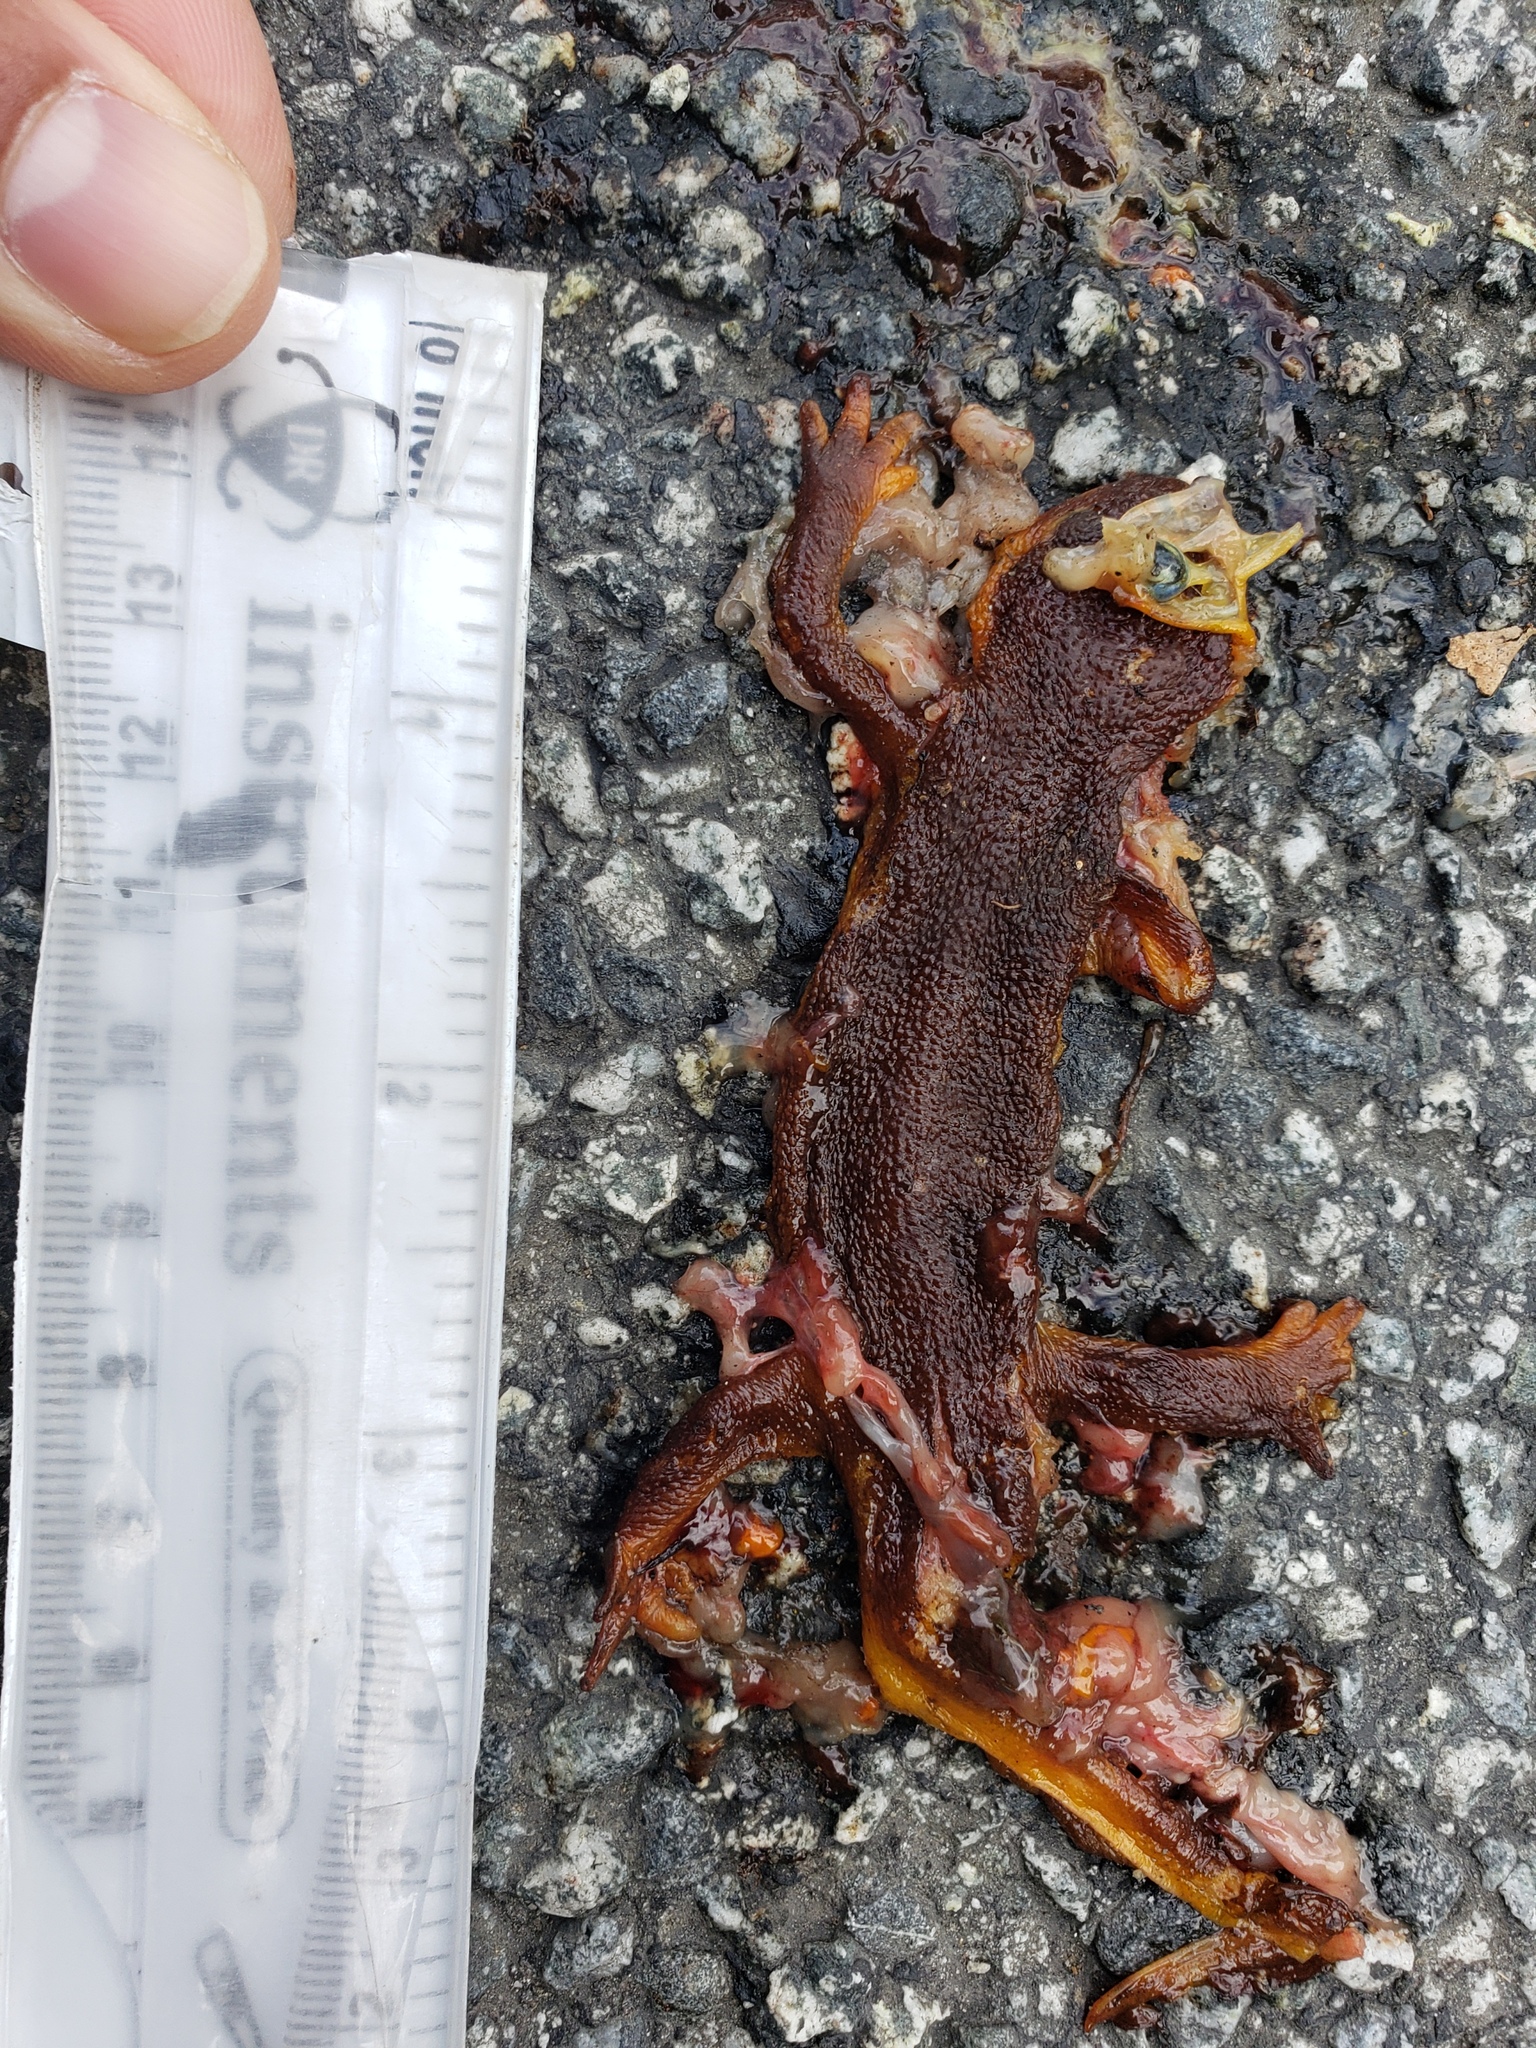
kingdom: Animalia
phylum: Chordata
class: Amphibia
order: Caudata
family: Salamandridae
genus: Taricha
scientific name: Taricha
